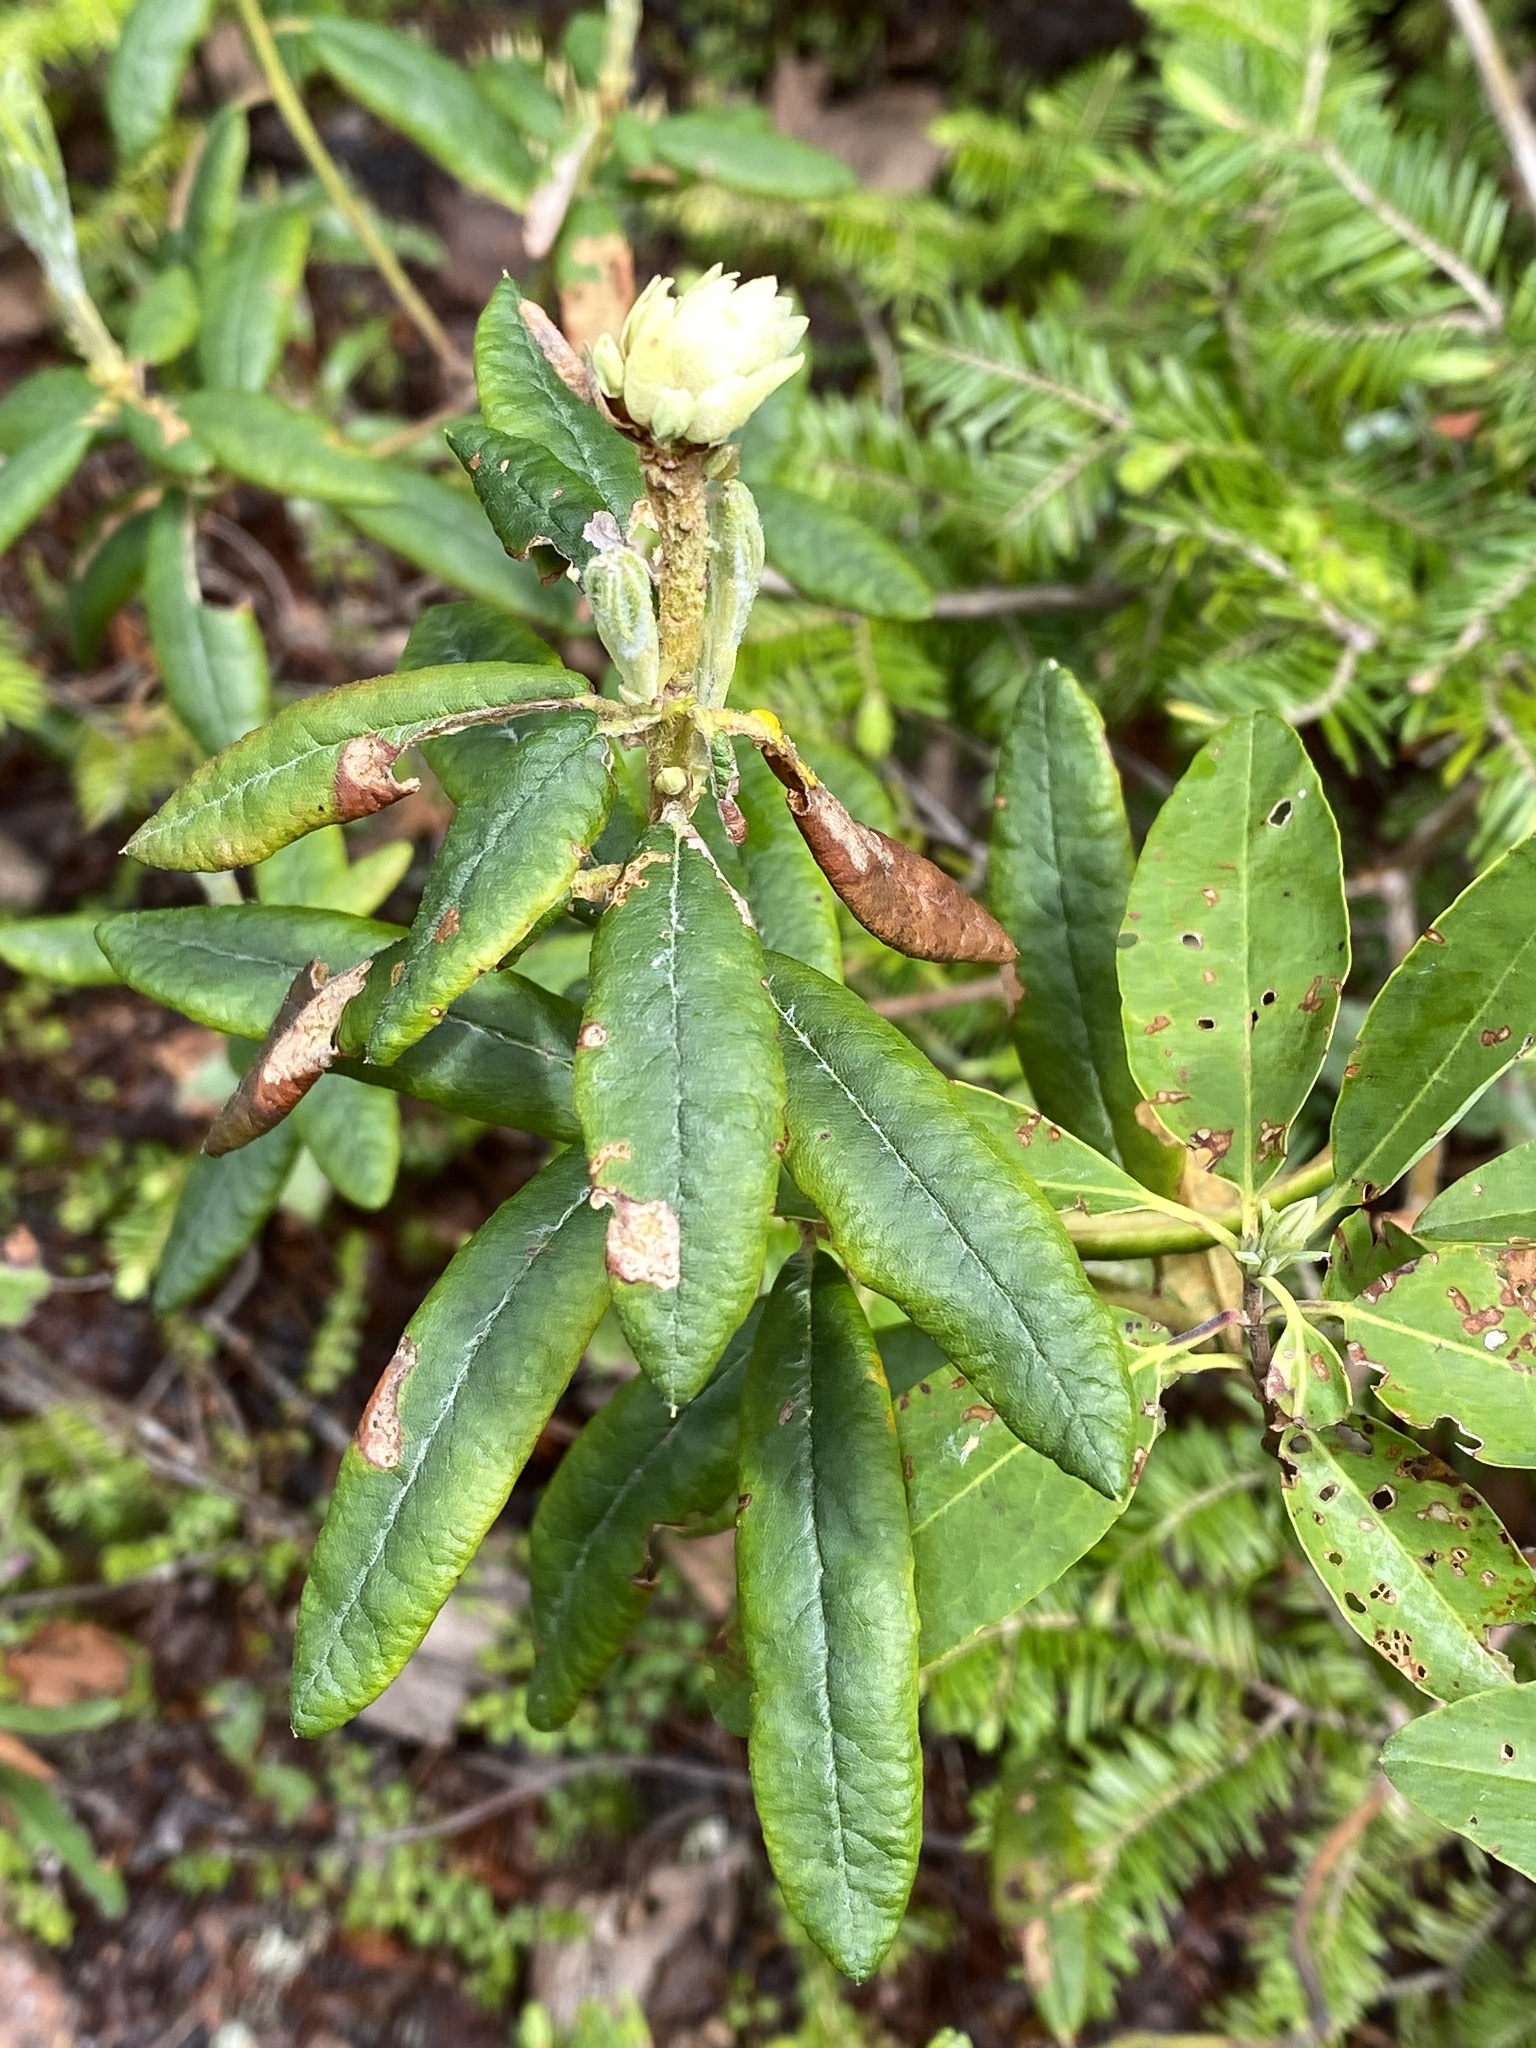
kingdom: Plantae
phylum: Tracheophyta
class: Magnoliopsida
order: Ericales
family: Ericaceae
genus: Rhododendron
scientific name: Rhododendron groenlandicum
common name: Bog labrador tea
